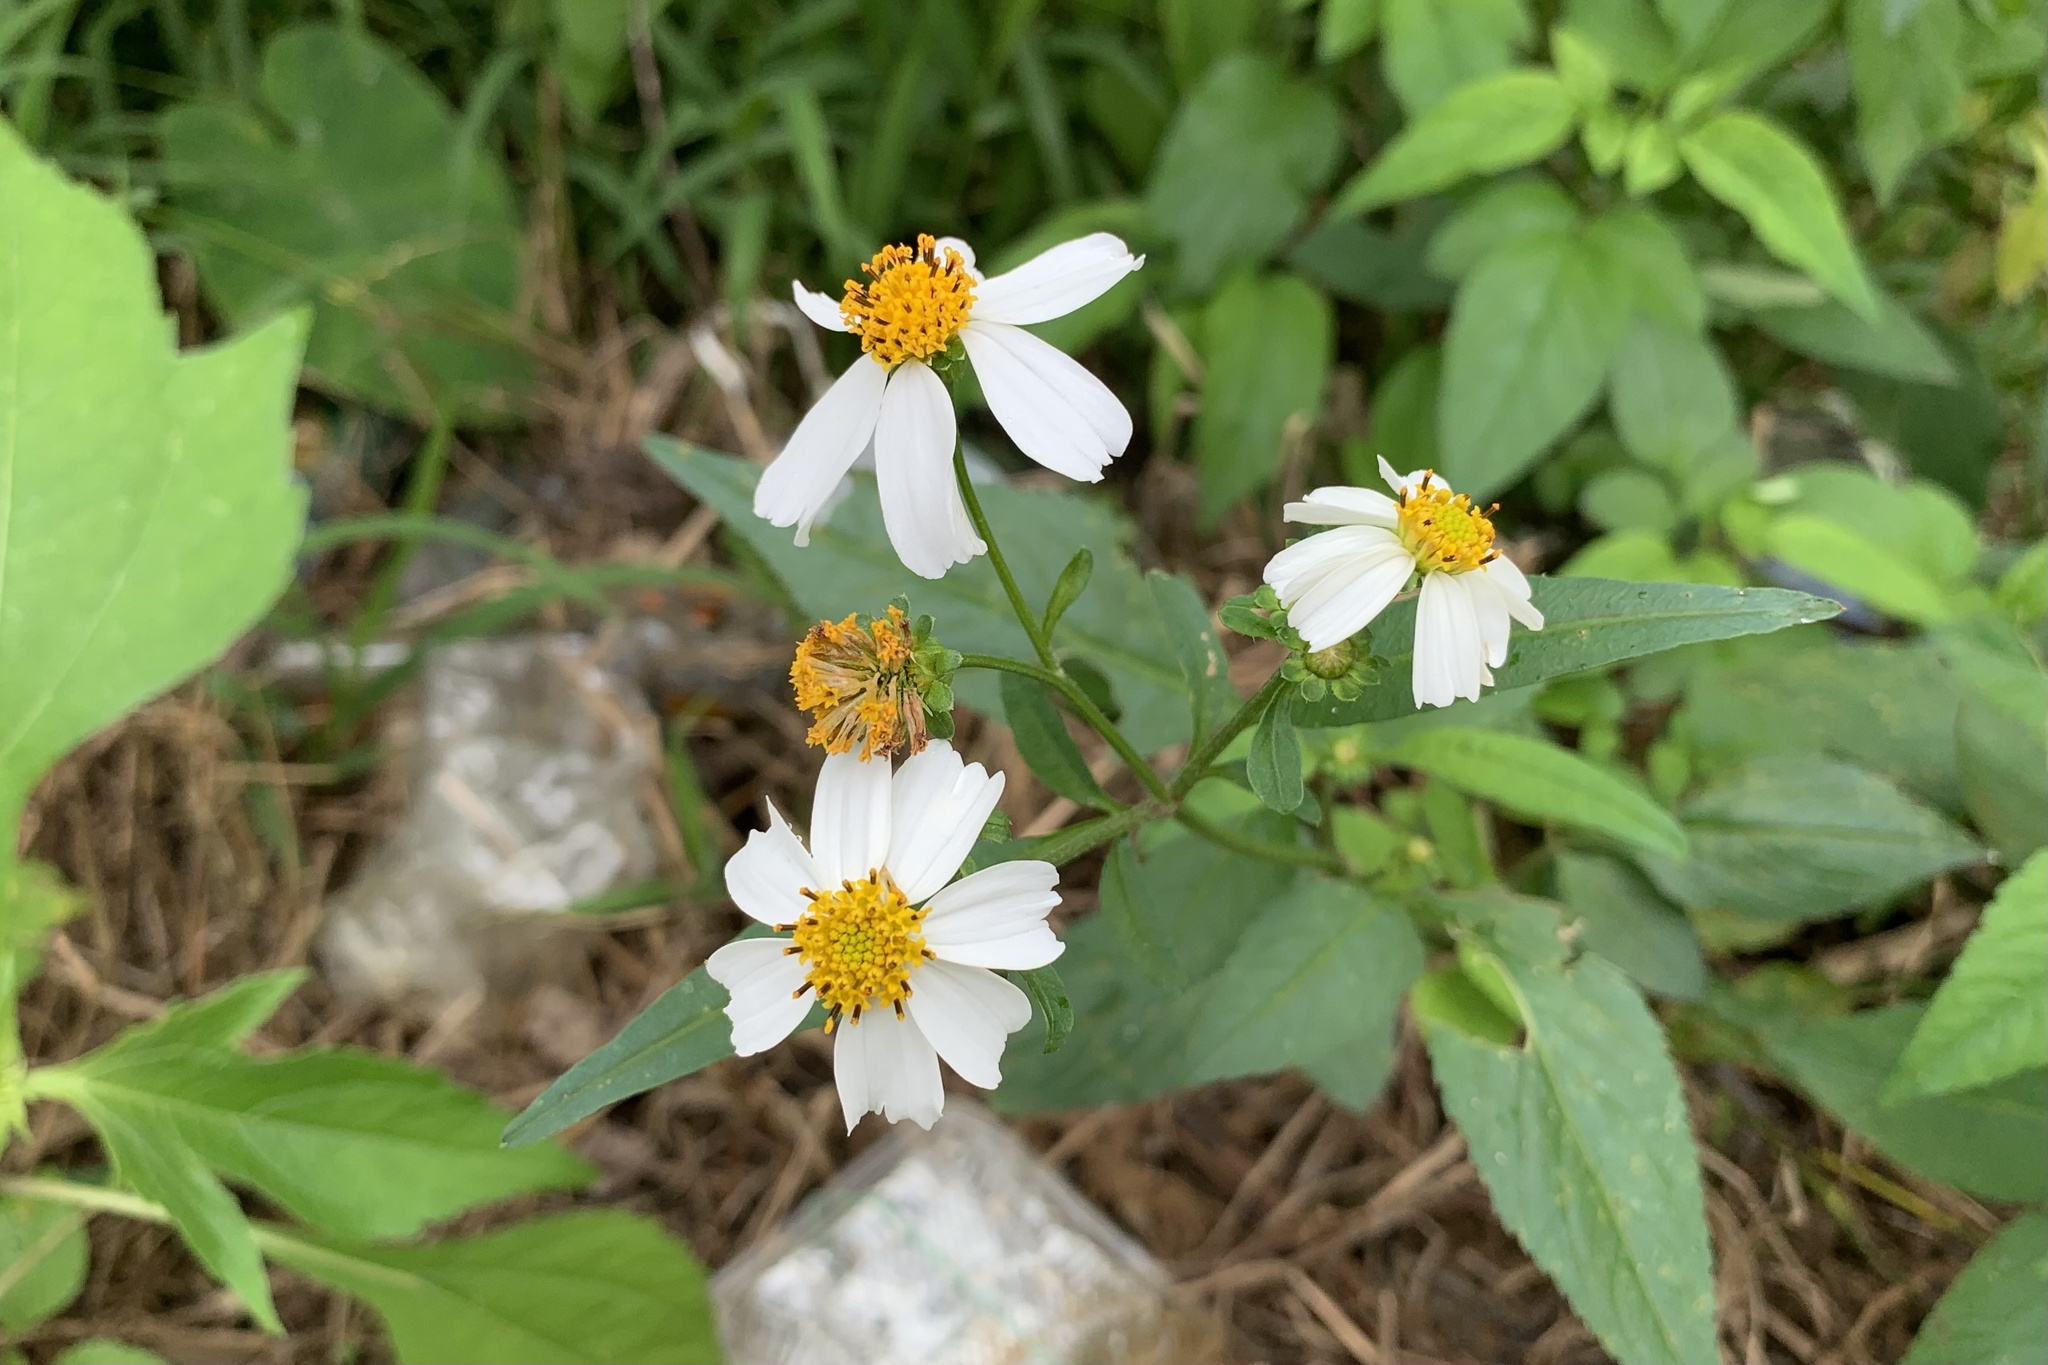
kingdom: Plantae
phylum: Tracheophyta
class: Magnoliopsida
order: Asterales
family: Asteraceae
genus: Bidens
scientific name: Bidens pilosa
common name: Black-jack
